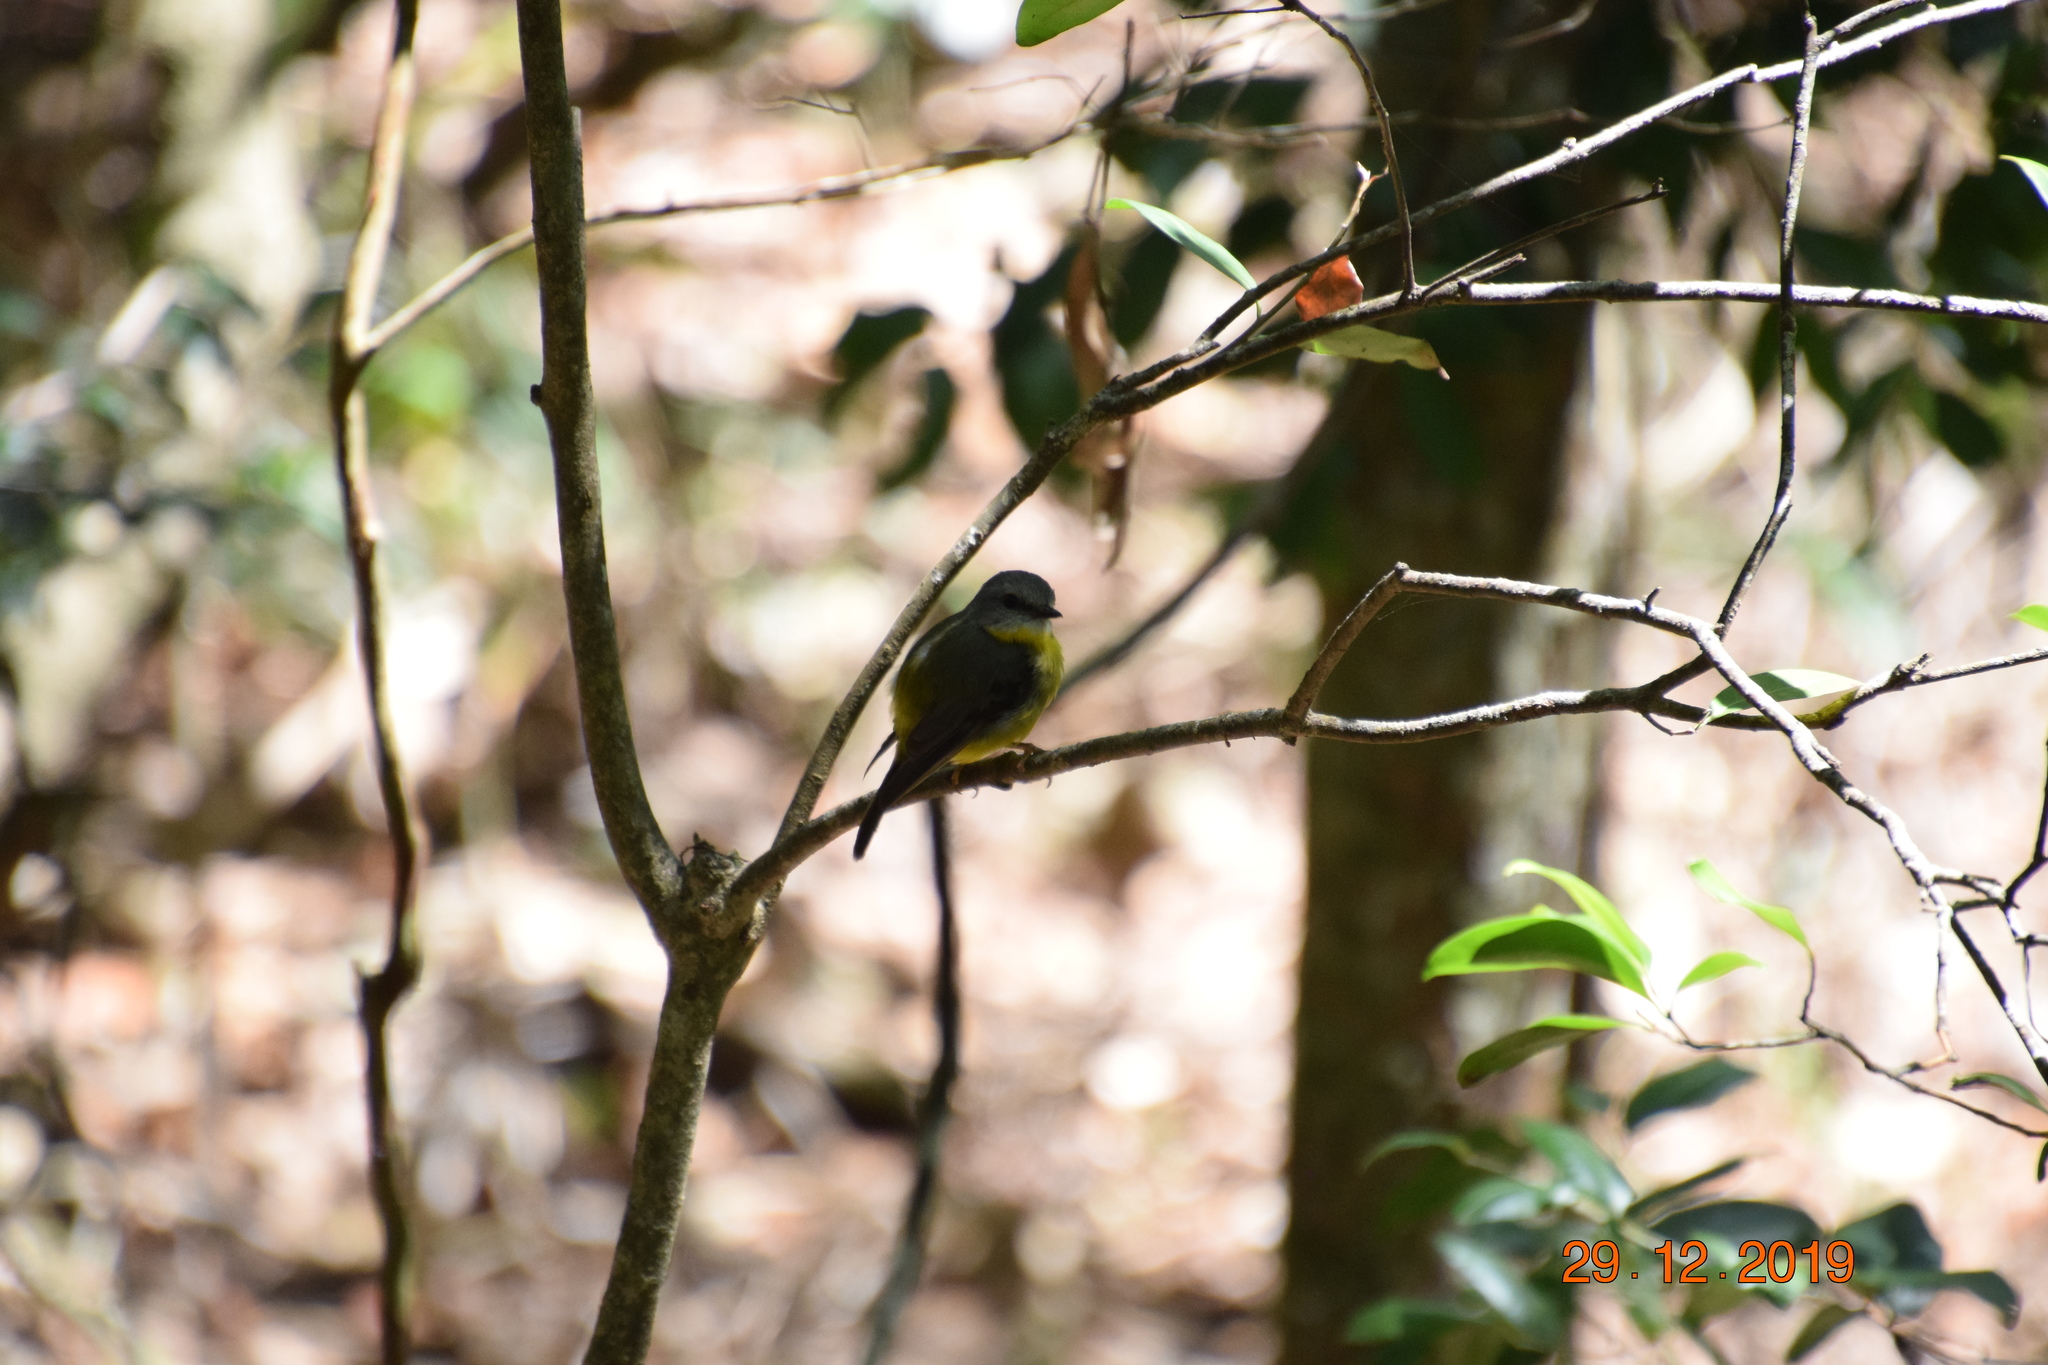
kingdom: Animalia
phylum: Chordata
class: Aves
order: Passeriformes
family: Petroicidae
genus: Eopsaltria
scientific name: Eopsaltria australis
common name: Eastern yellow robin
